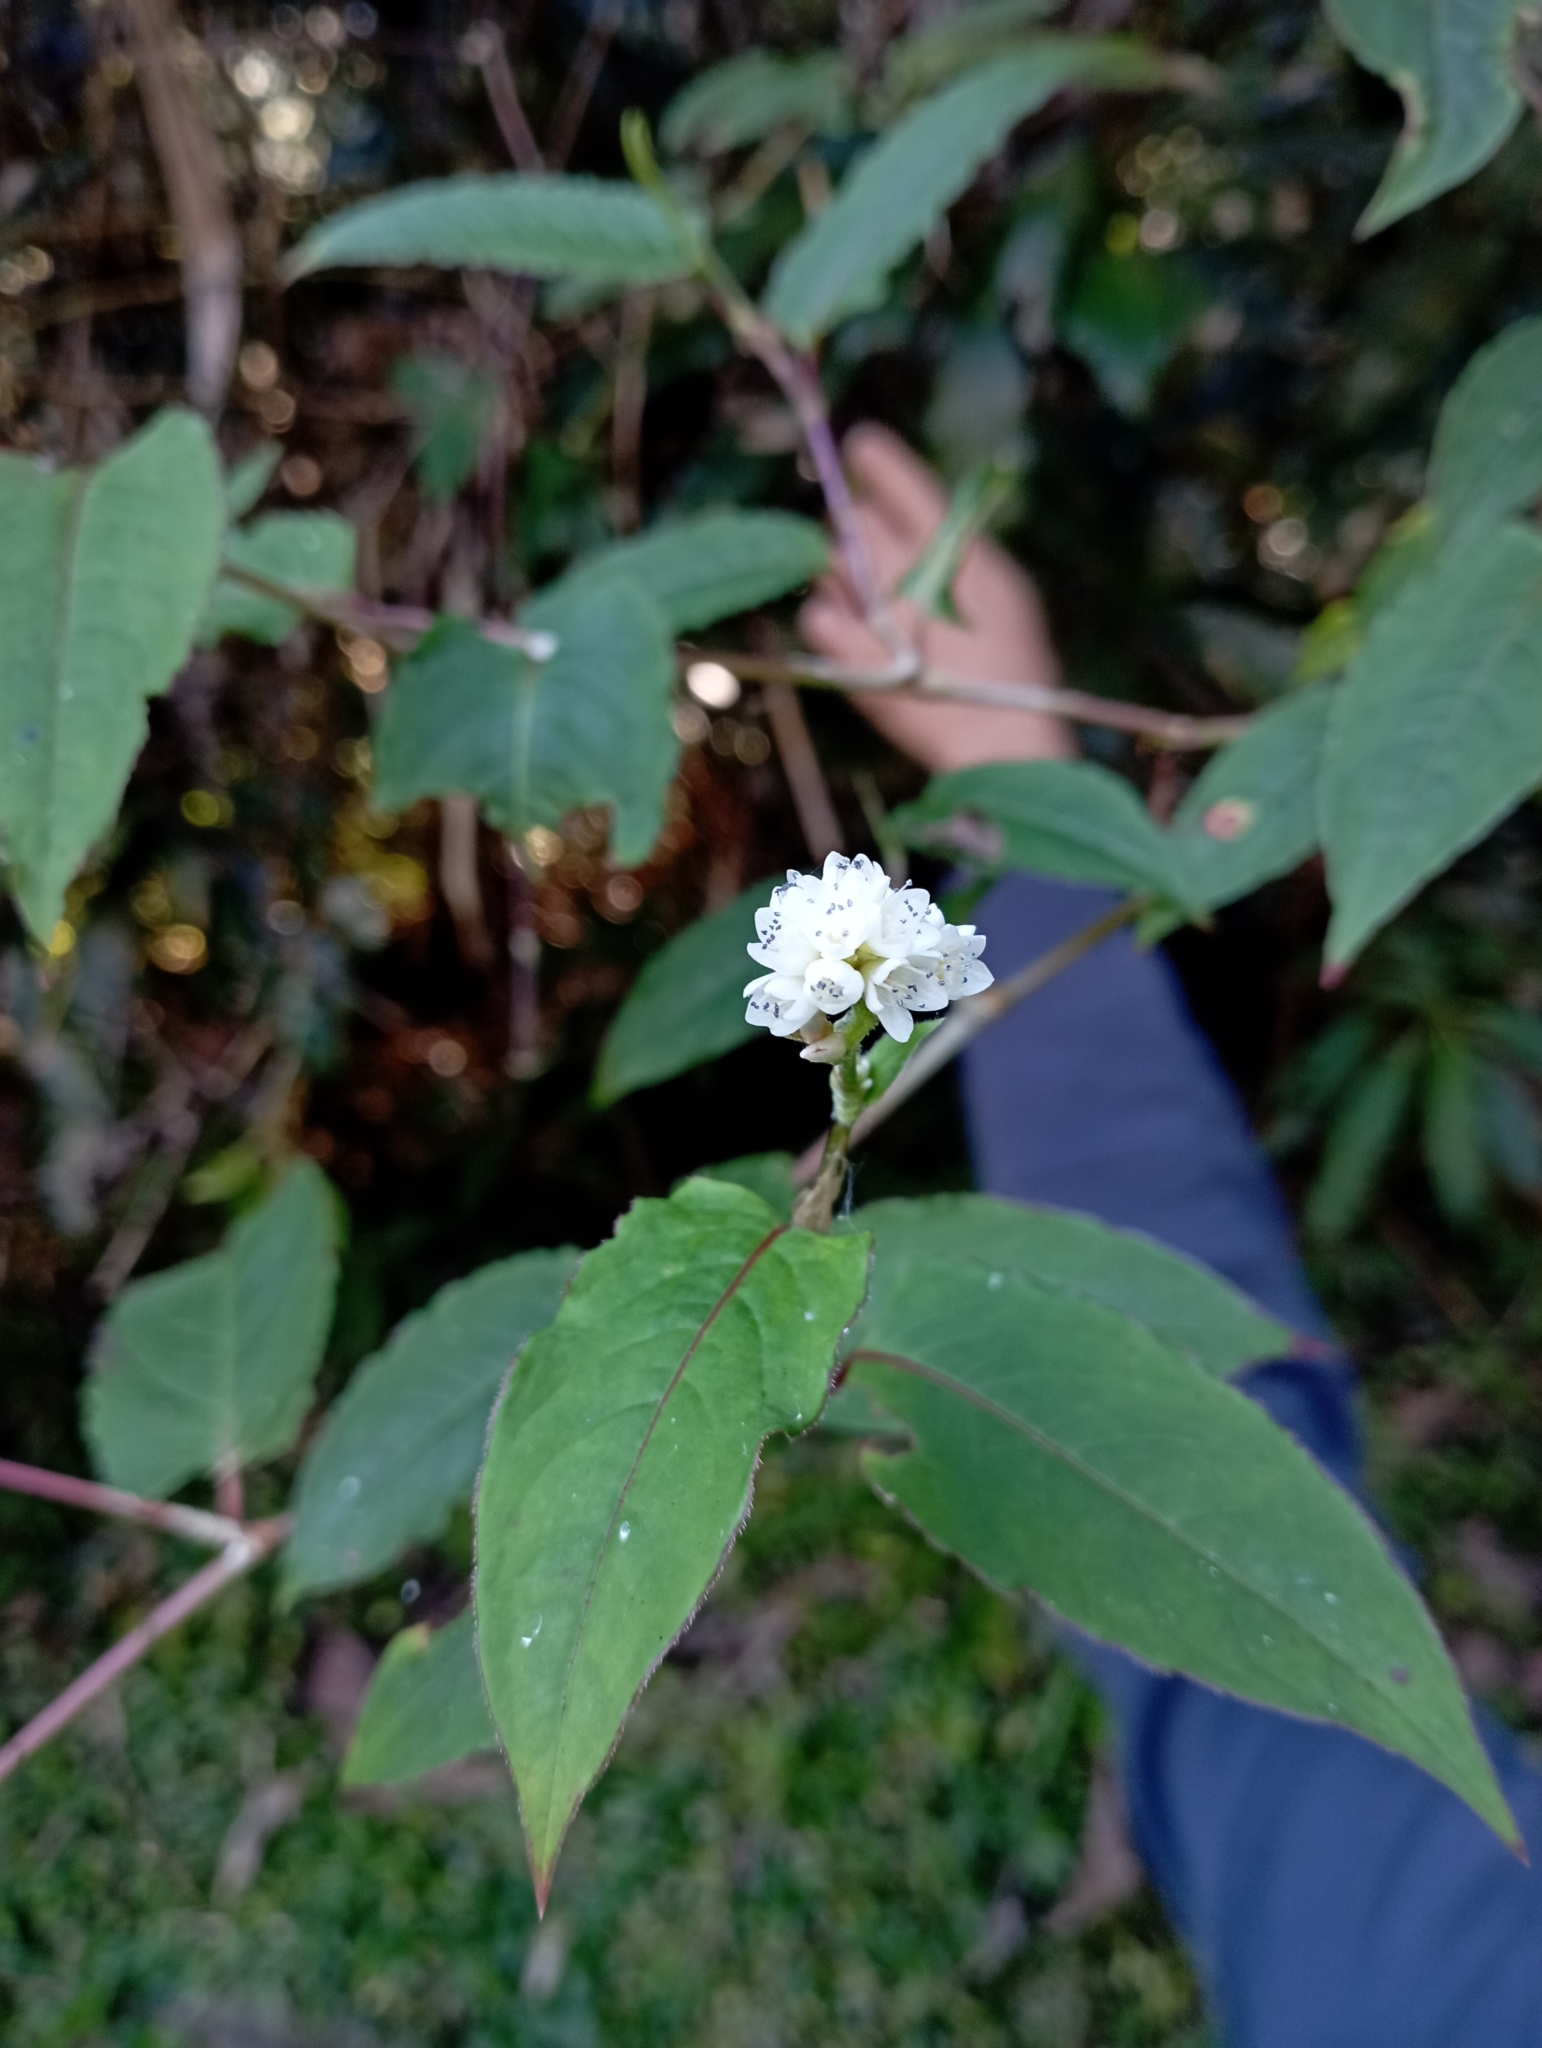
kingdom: Plantae
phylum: Tracheophyta
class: Magnoliopsida
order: Caryophyllales
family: Polygonaceae
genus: Persicaria
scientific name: Persicaria chinensis
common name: Chinese knotweed
